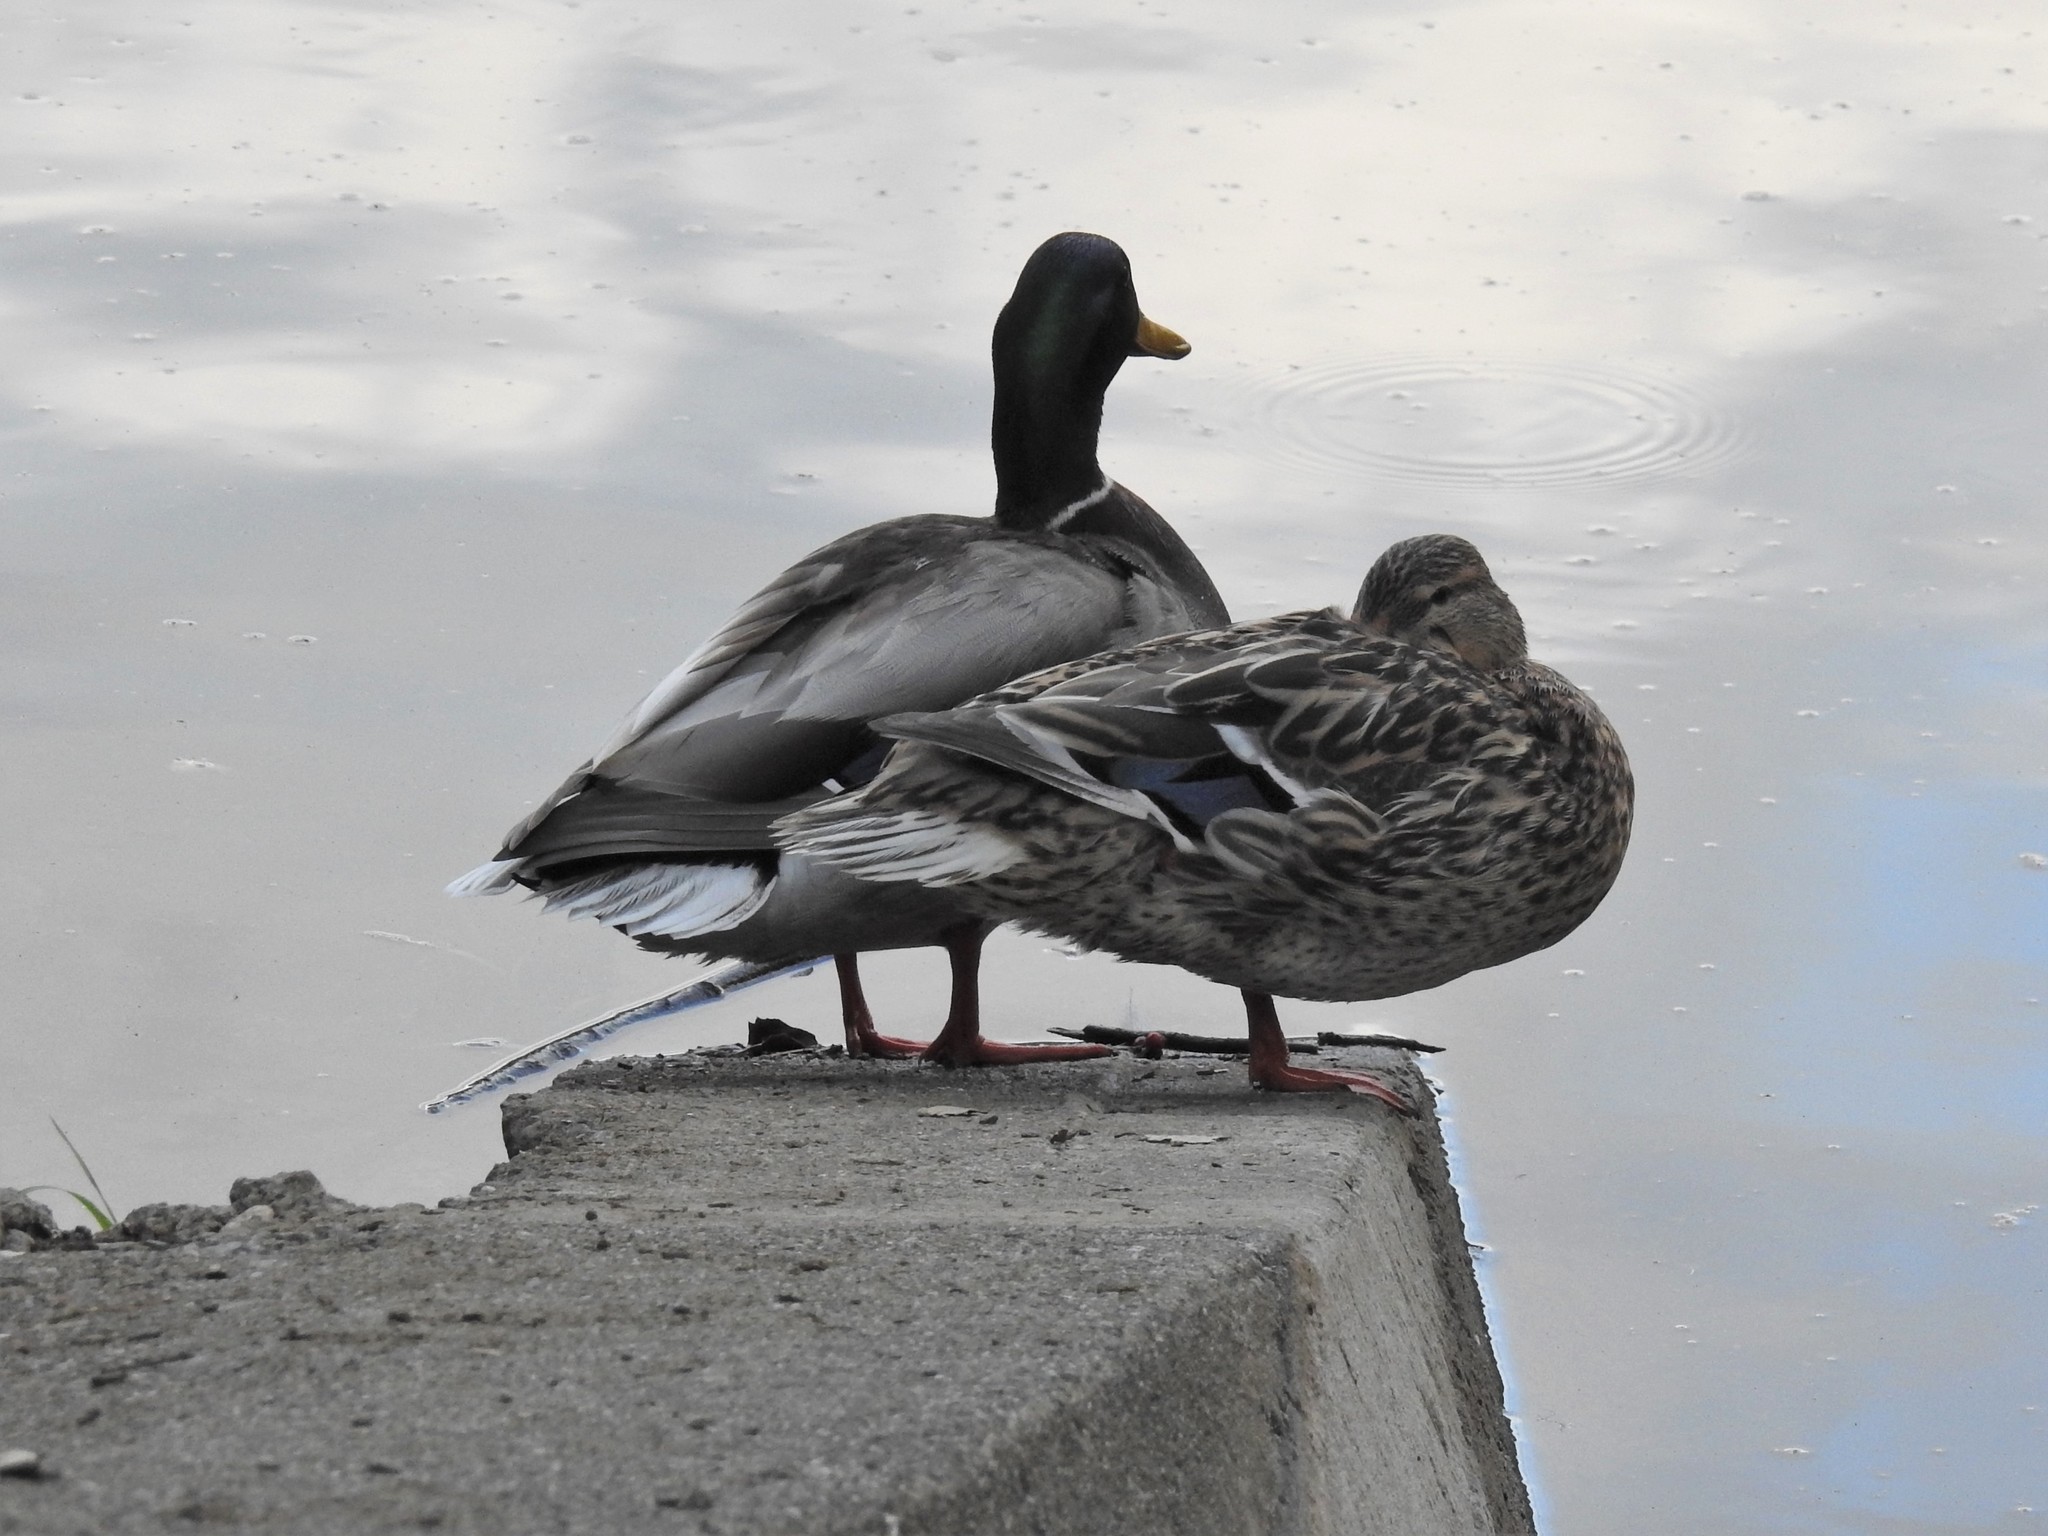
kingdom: Animalia
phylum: Chordata
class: Aves
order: Anseriformes
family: Anatidae
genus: Anas
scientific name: Anas platyrhynchos
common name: Mallard
